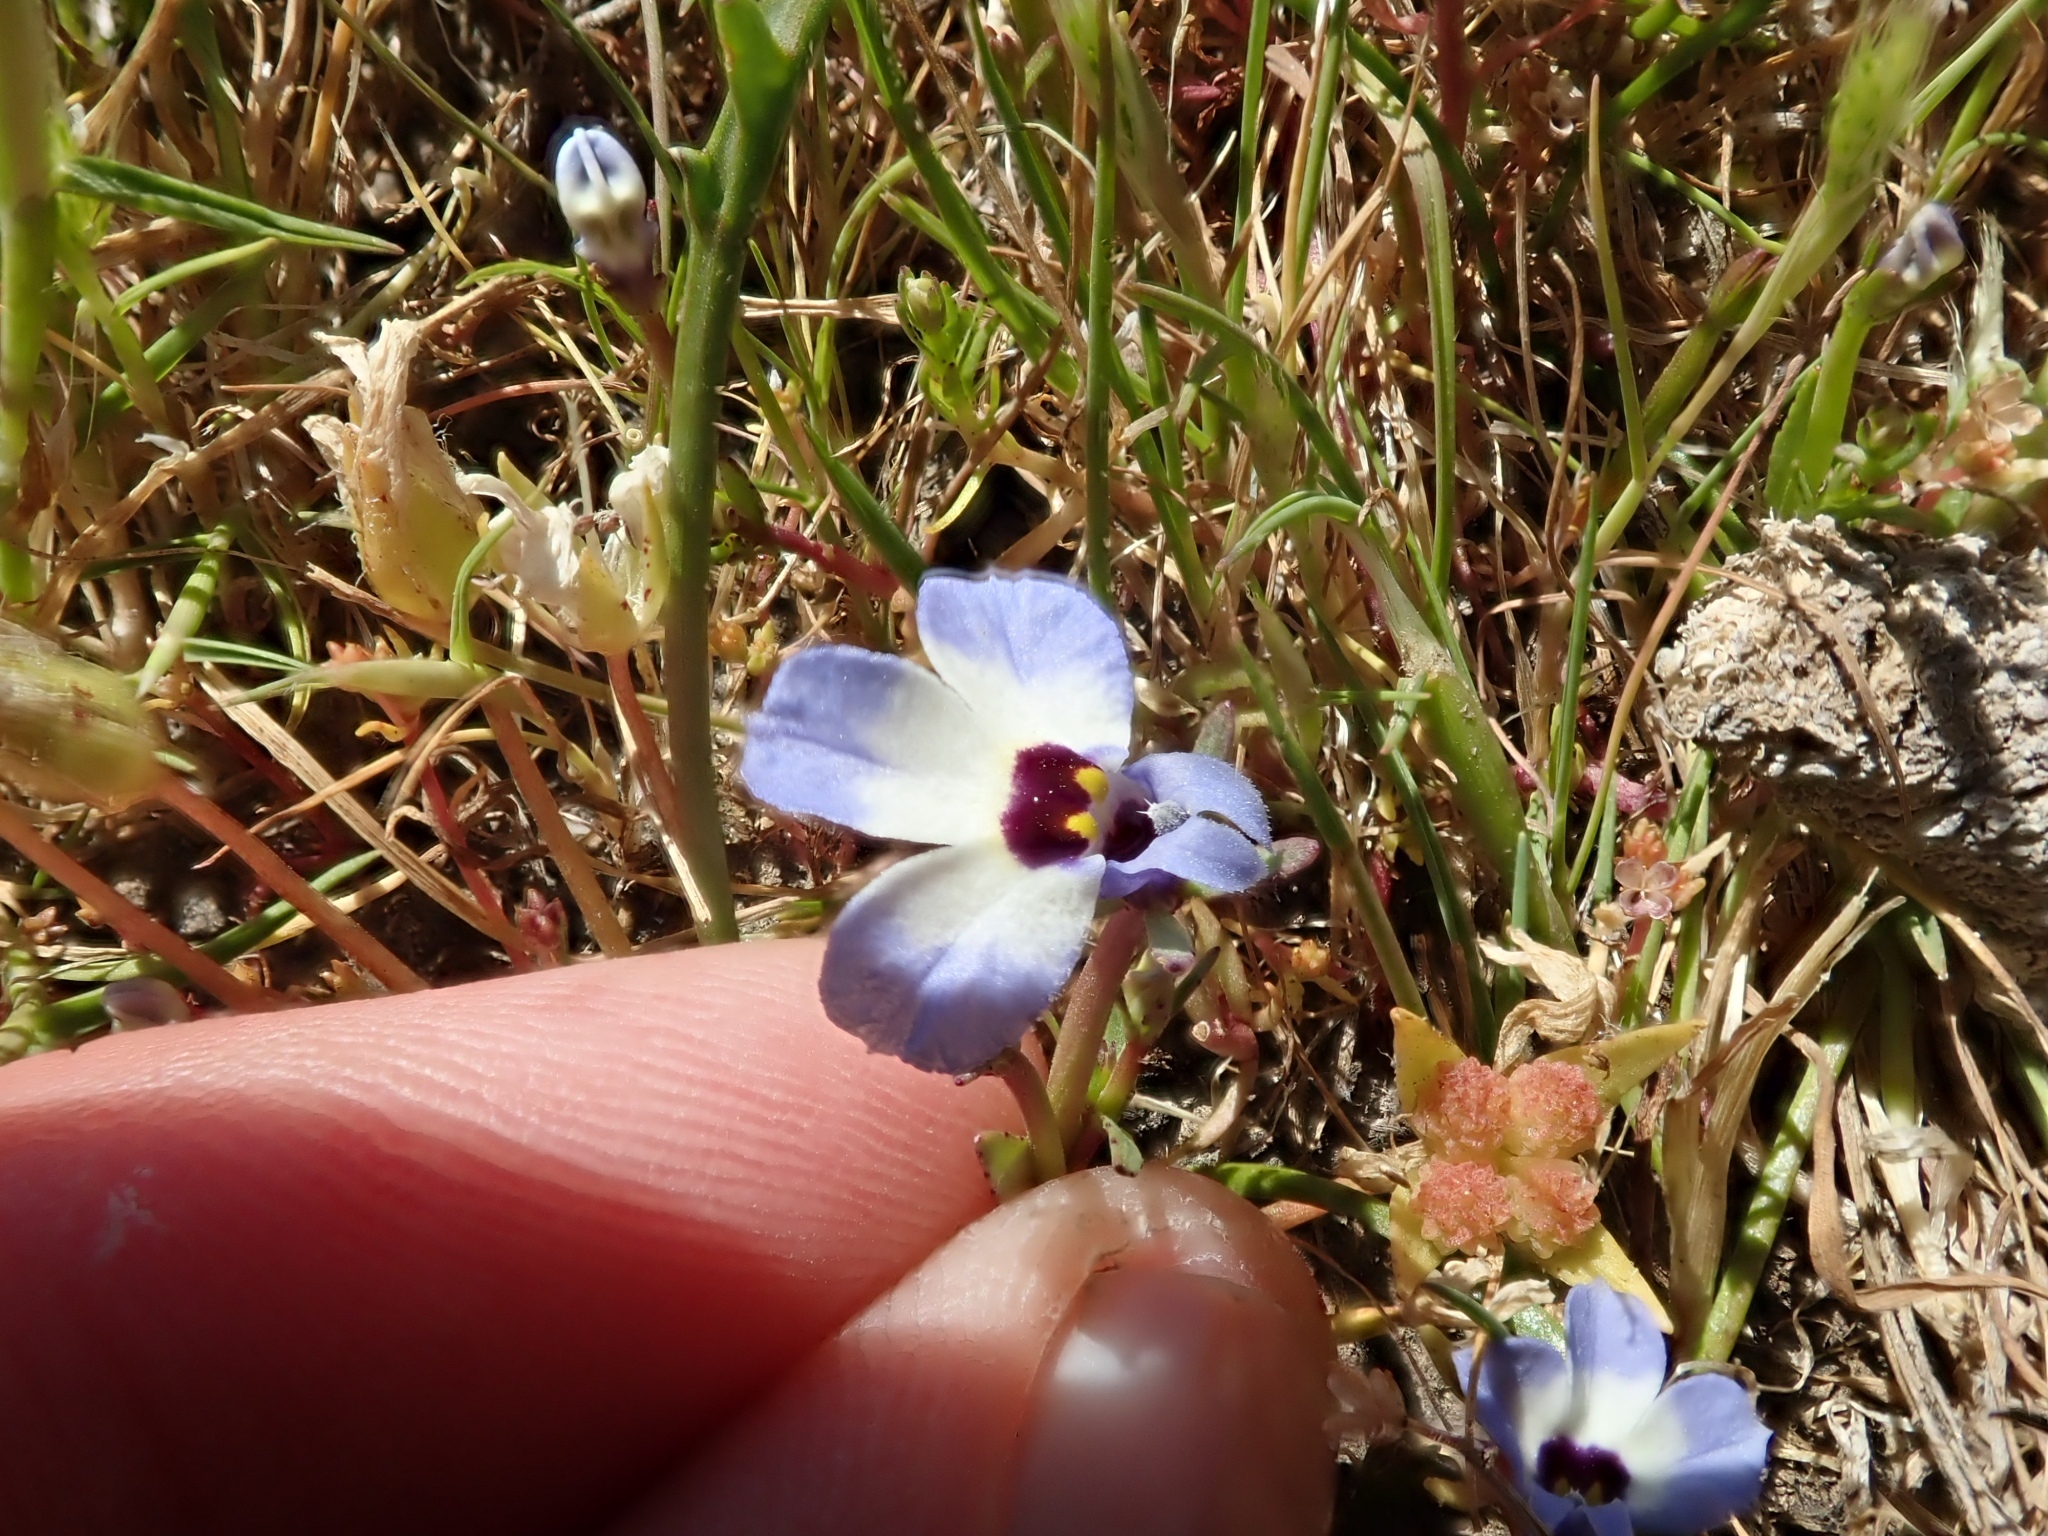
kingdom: Plantae
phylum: Tracheophyta
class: Magnoliopsida
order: Asterales
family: Campanulaceae
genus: Downingia
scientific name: Downingia concolor
